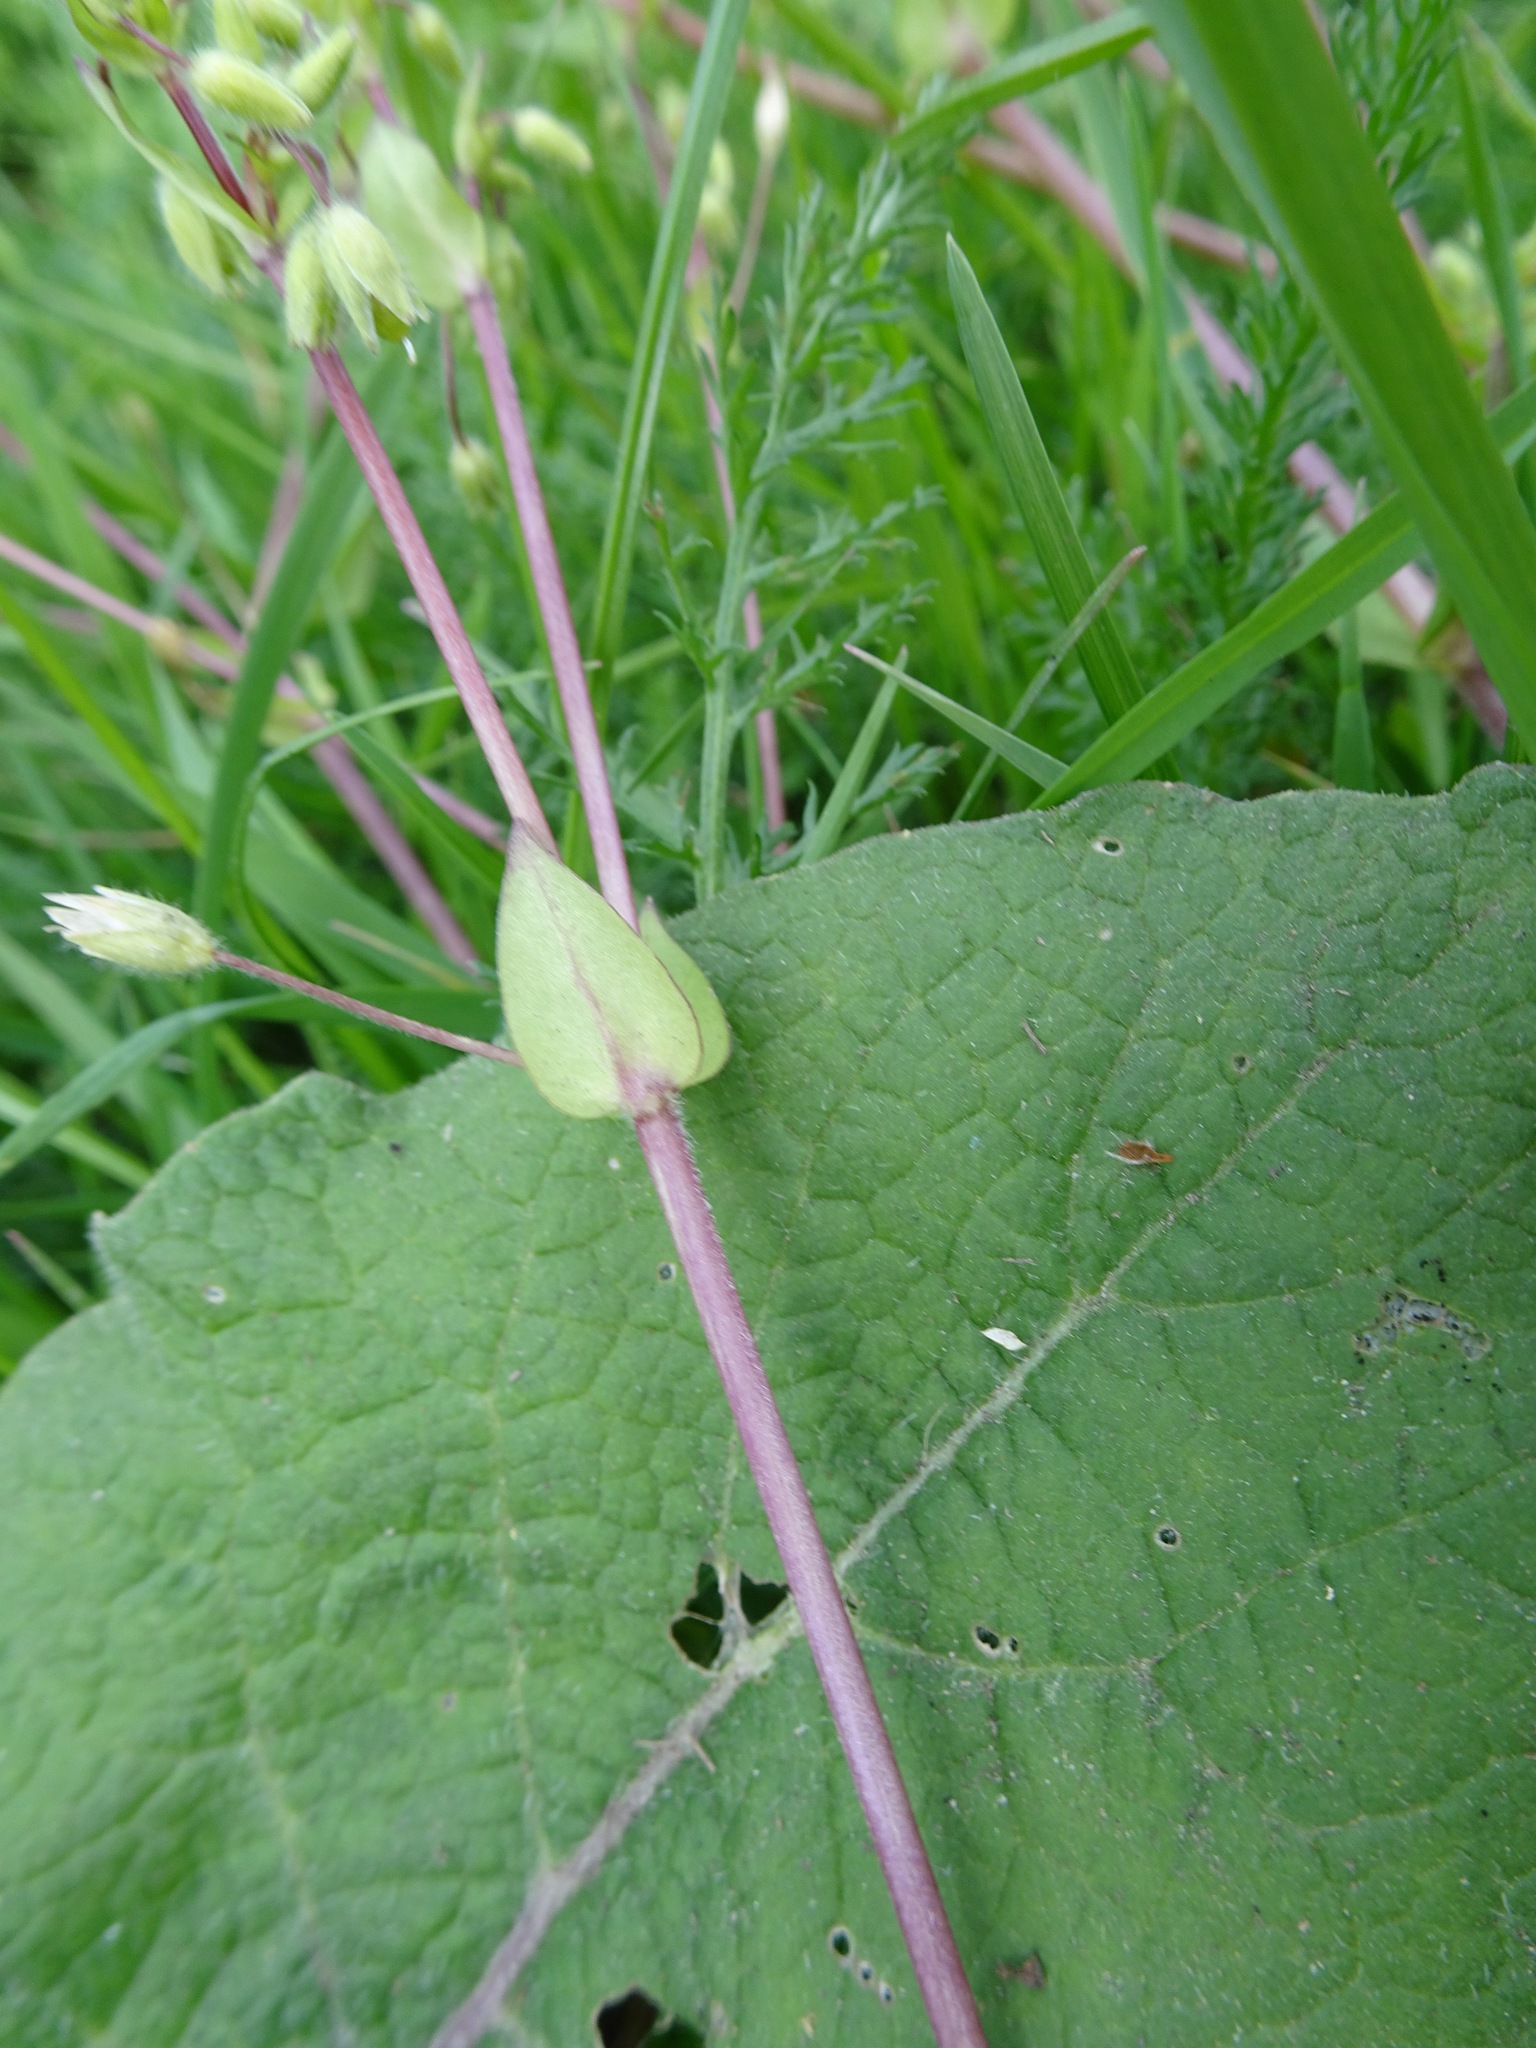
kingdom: Plantae
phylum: Tracheophyta
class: Magnoliopsida
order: Caryophyllales
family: Caryophyllaceae
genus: Stellaria
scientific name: Stellaria media
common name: Common chickweed
